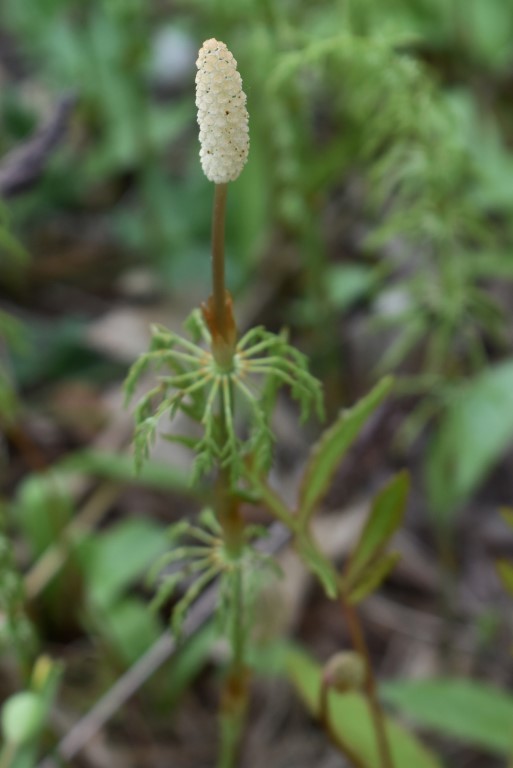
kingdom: Plantae
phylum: Tracheophyta
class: Polypodiopsida
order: Equisetales
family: Equisetaceae
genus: Equisetum
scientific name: Equisetum sylvaticum
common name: Wood horsetail
